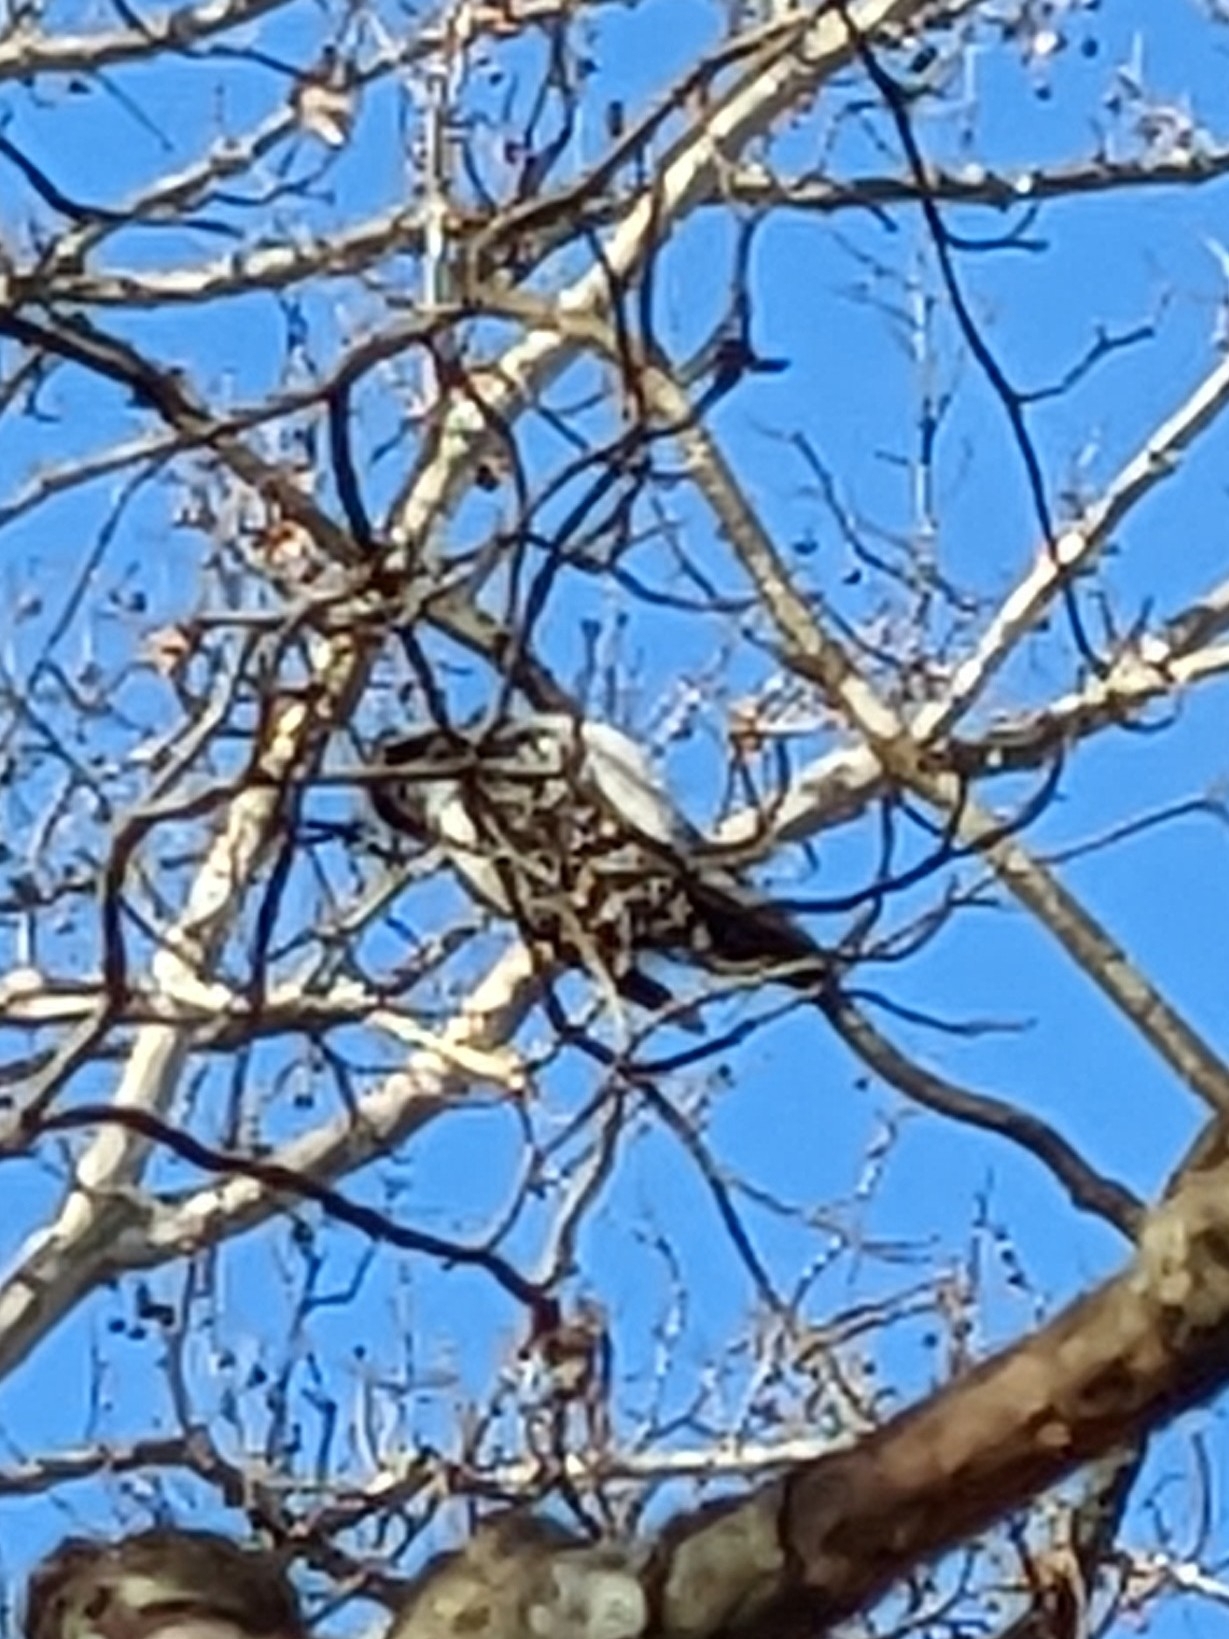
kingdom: Animalia
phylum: Chordata
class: Aves
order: Piciformes
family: Picidae
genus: Dryobates
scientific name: Dryobates pubescens
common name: Downy woodpecker
